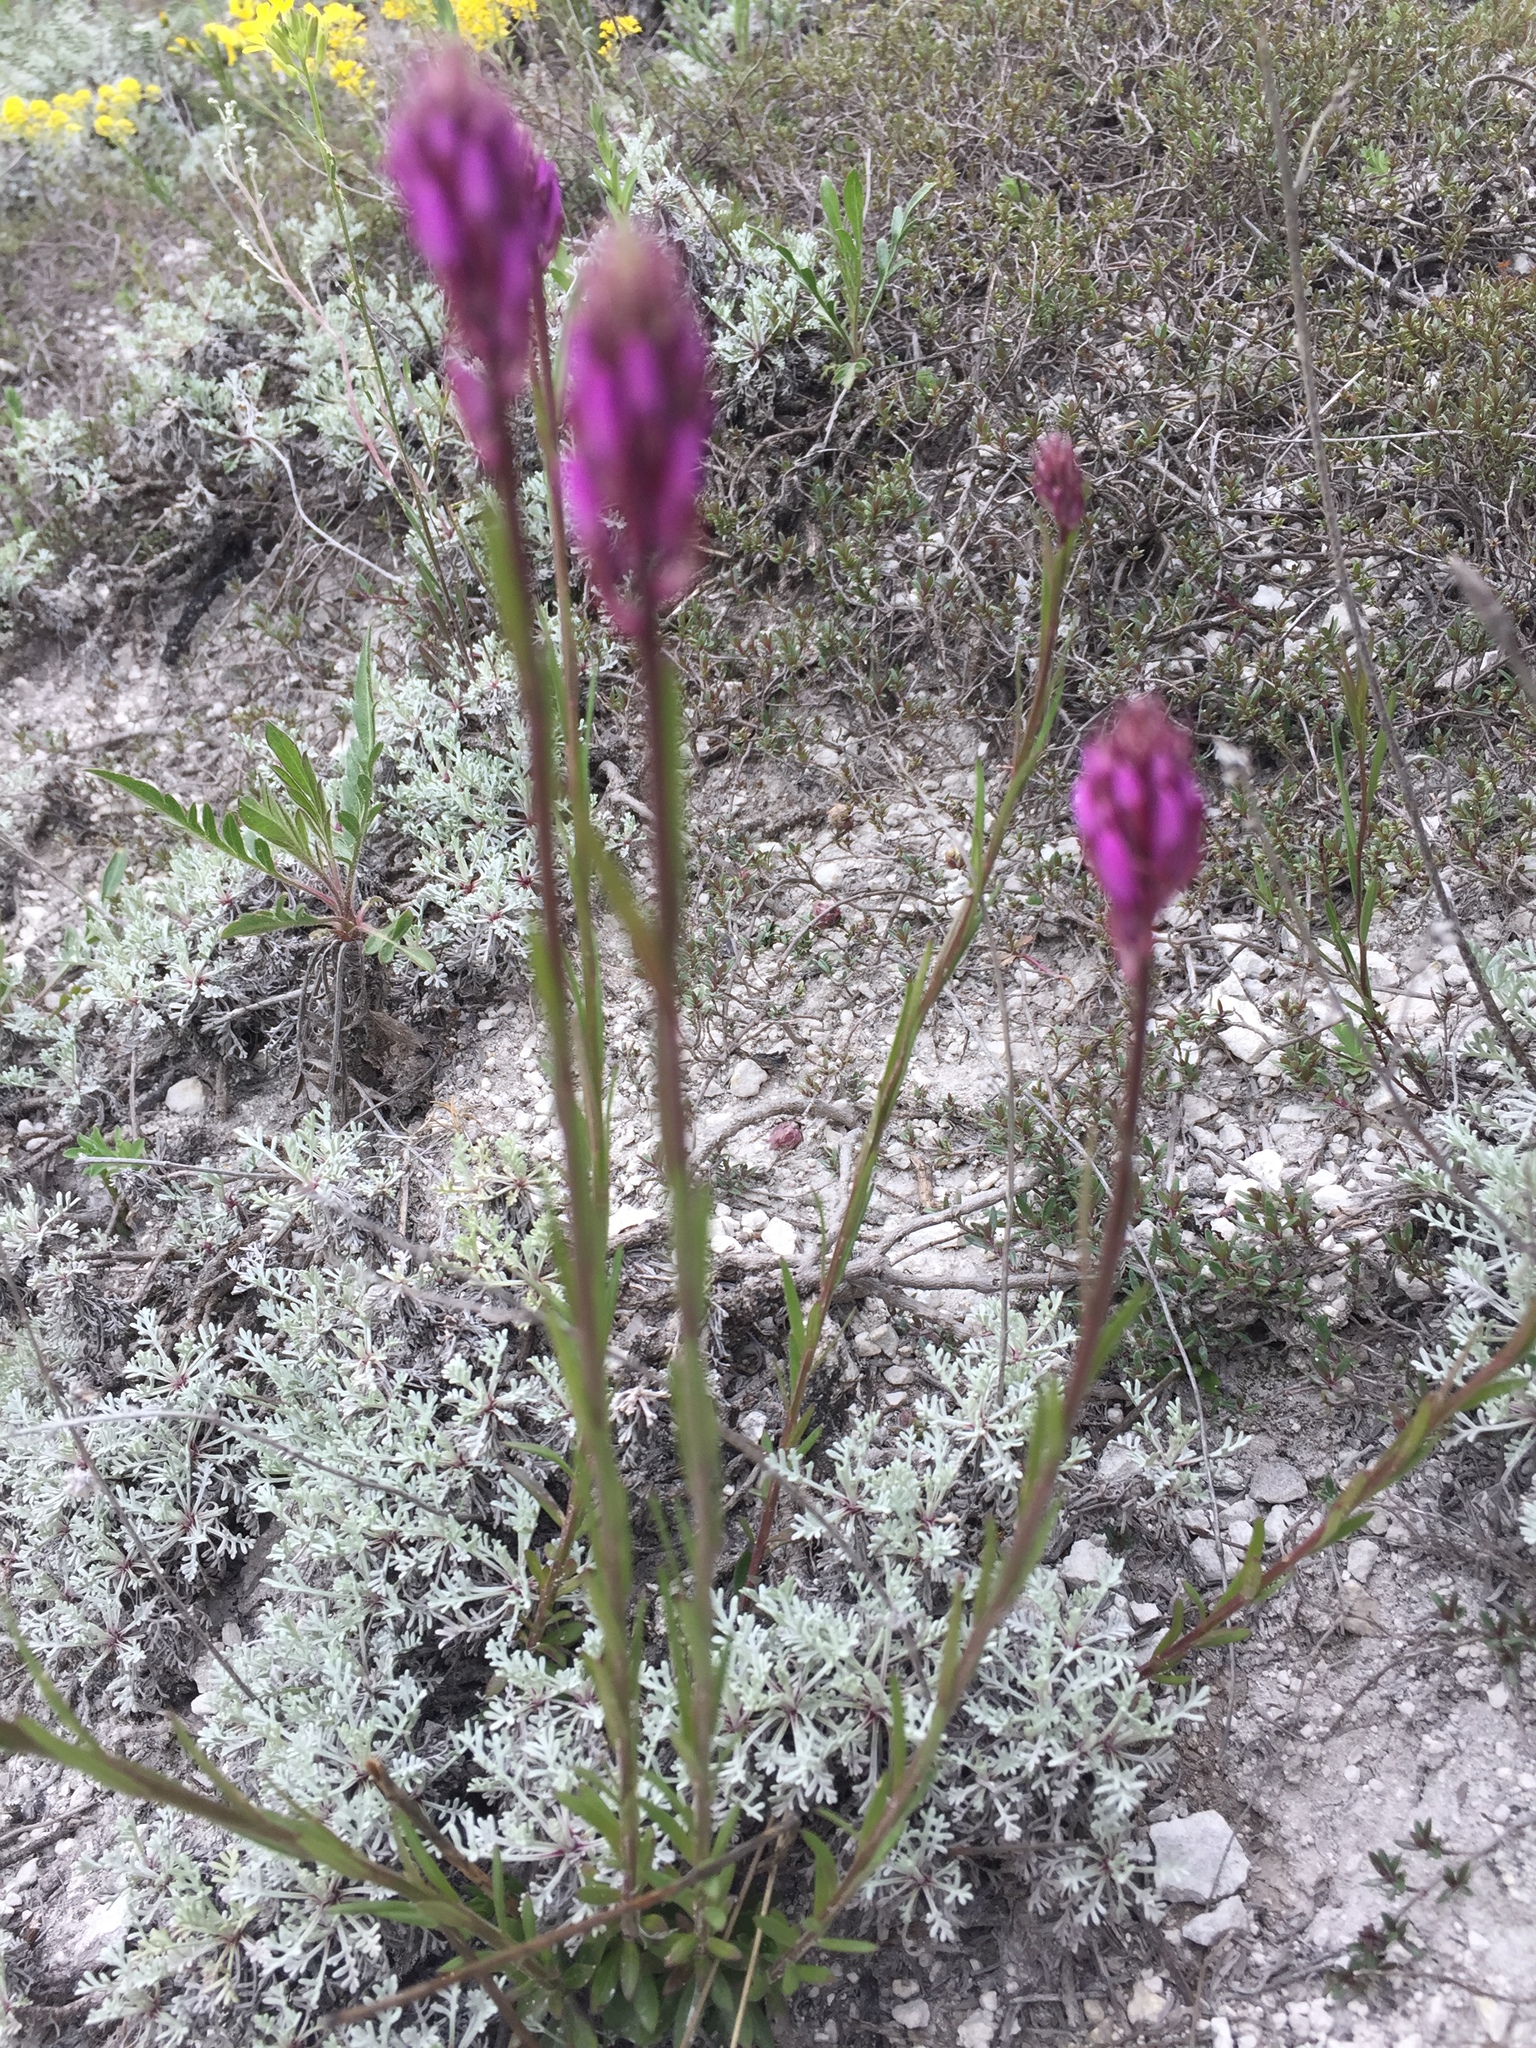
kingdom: Plantae
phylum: Tracheophyta
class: Magnoliopsida
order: Fabales
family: Polygalaceae
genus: Polygala
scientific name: Polygala nicaeensis
